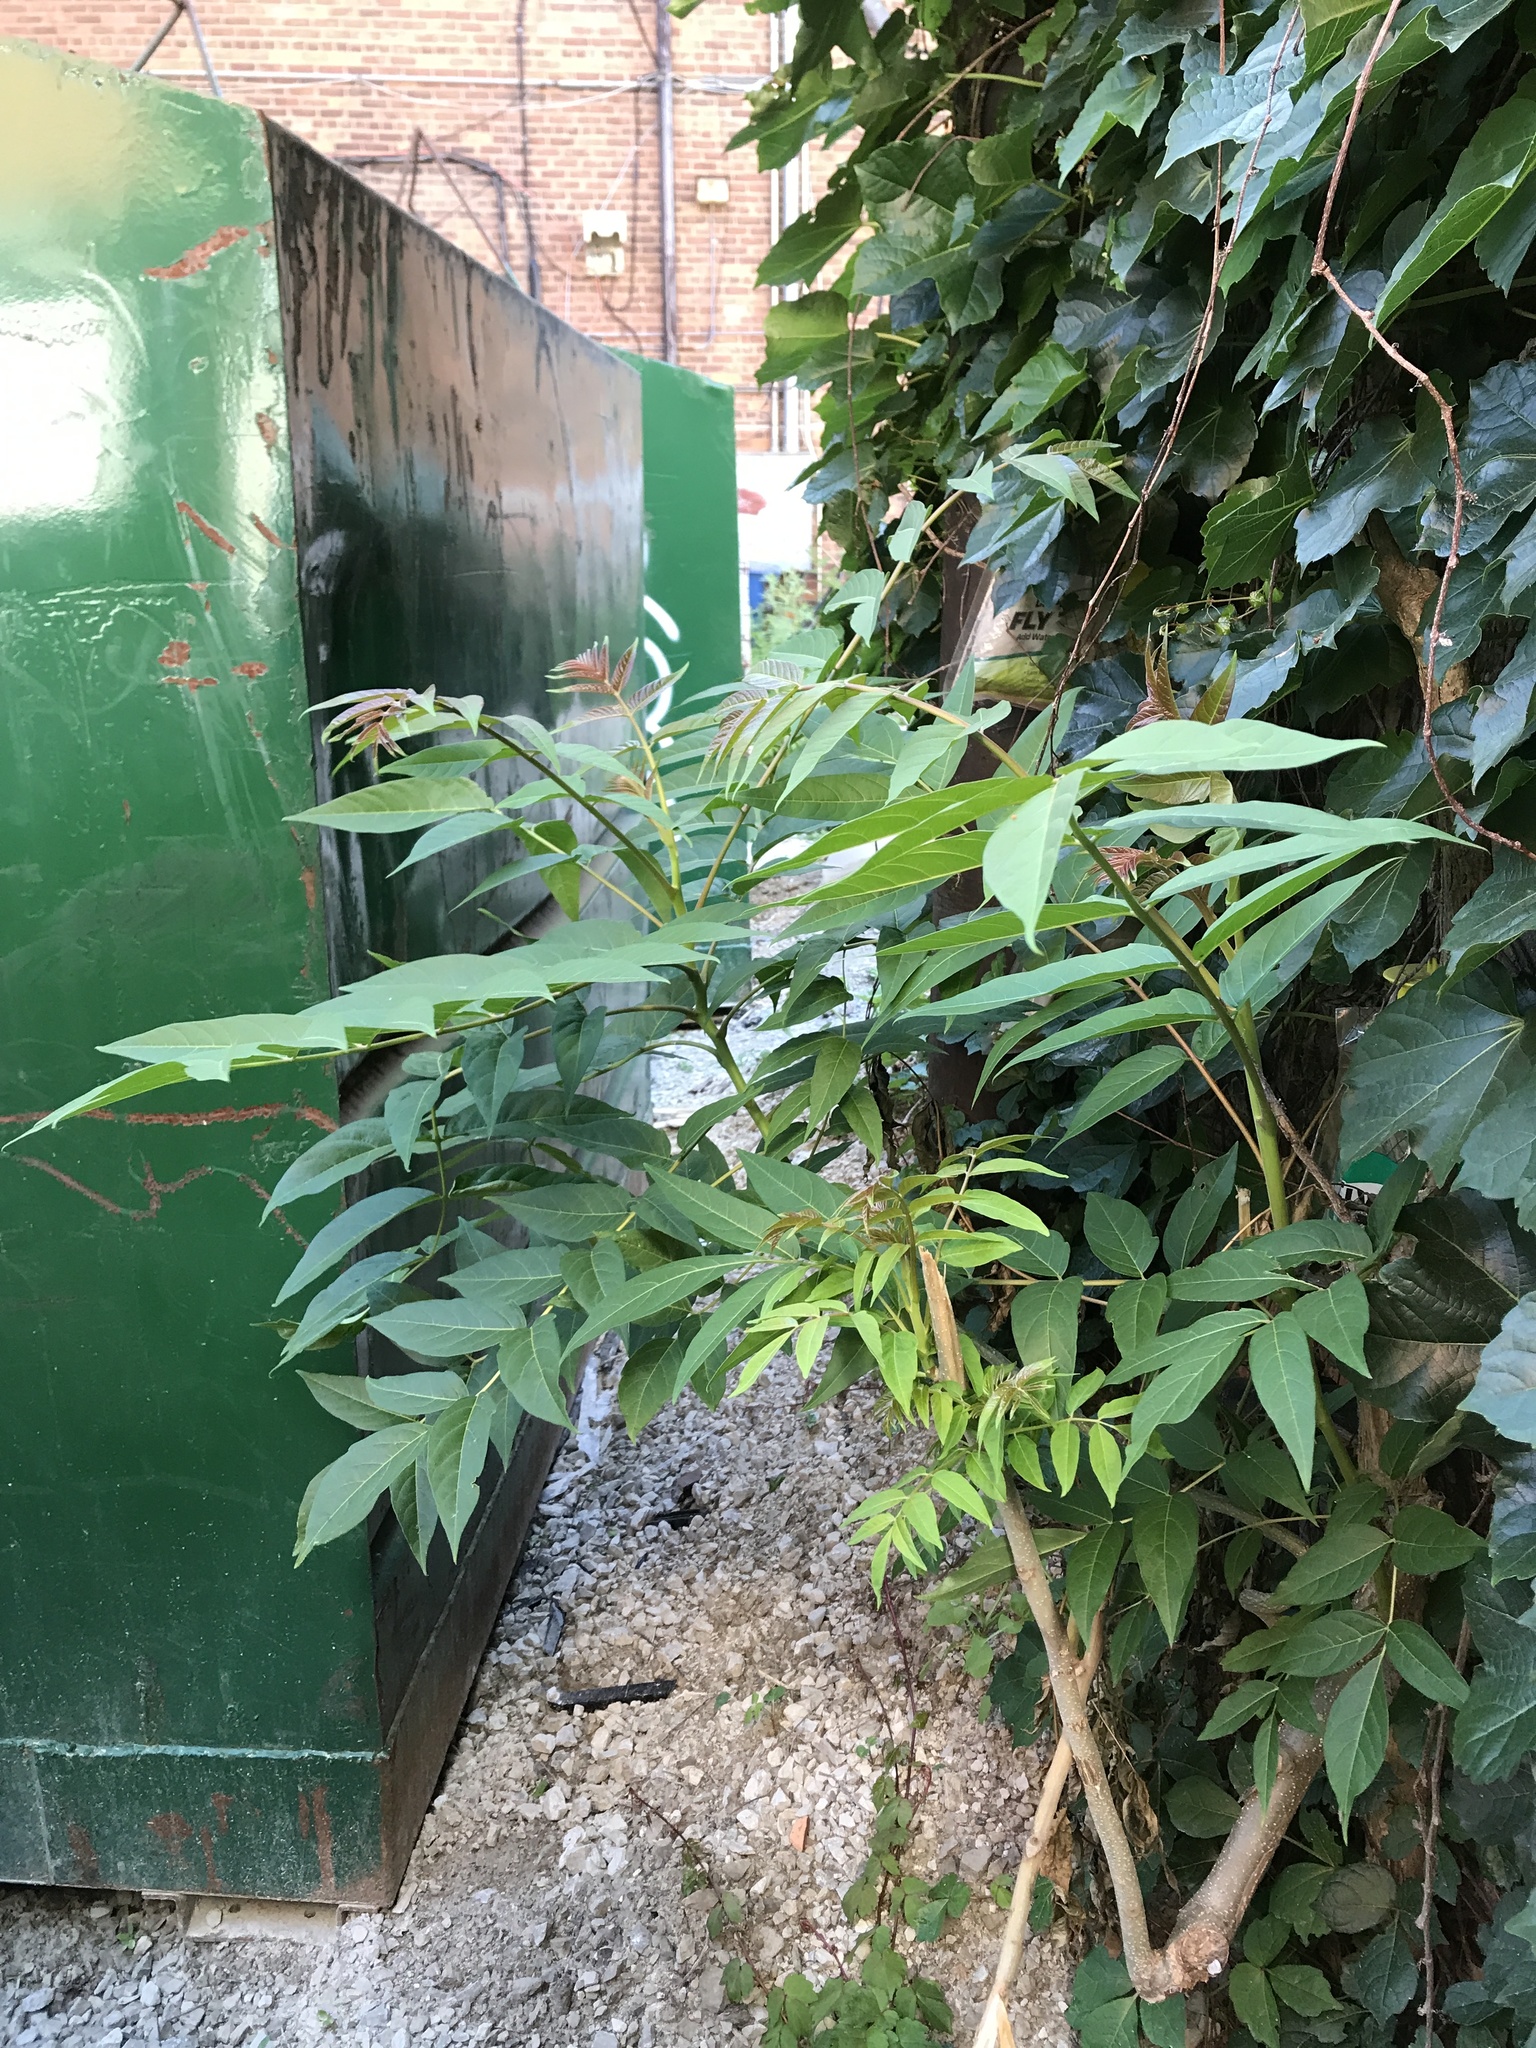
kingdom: Plantae
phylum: Tracheophyta
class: Magnoliopsida
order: Sapindales
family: Simaroubaceae
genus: Ailanthus
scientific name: Ailanthus altissima
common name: Tree-of-heaven
